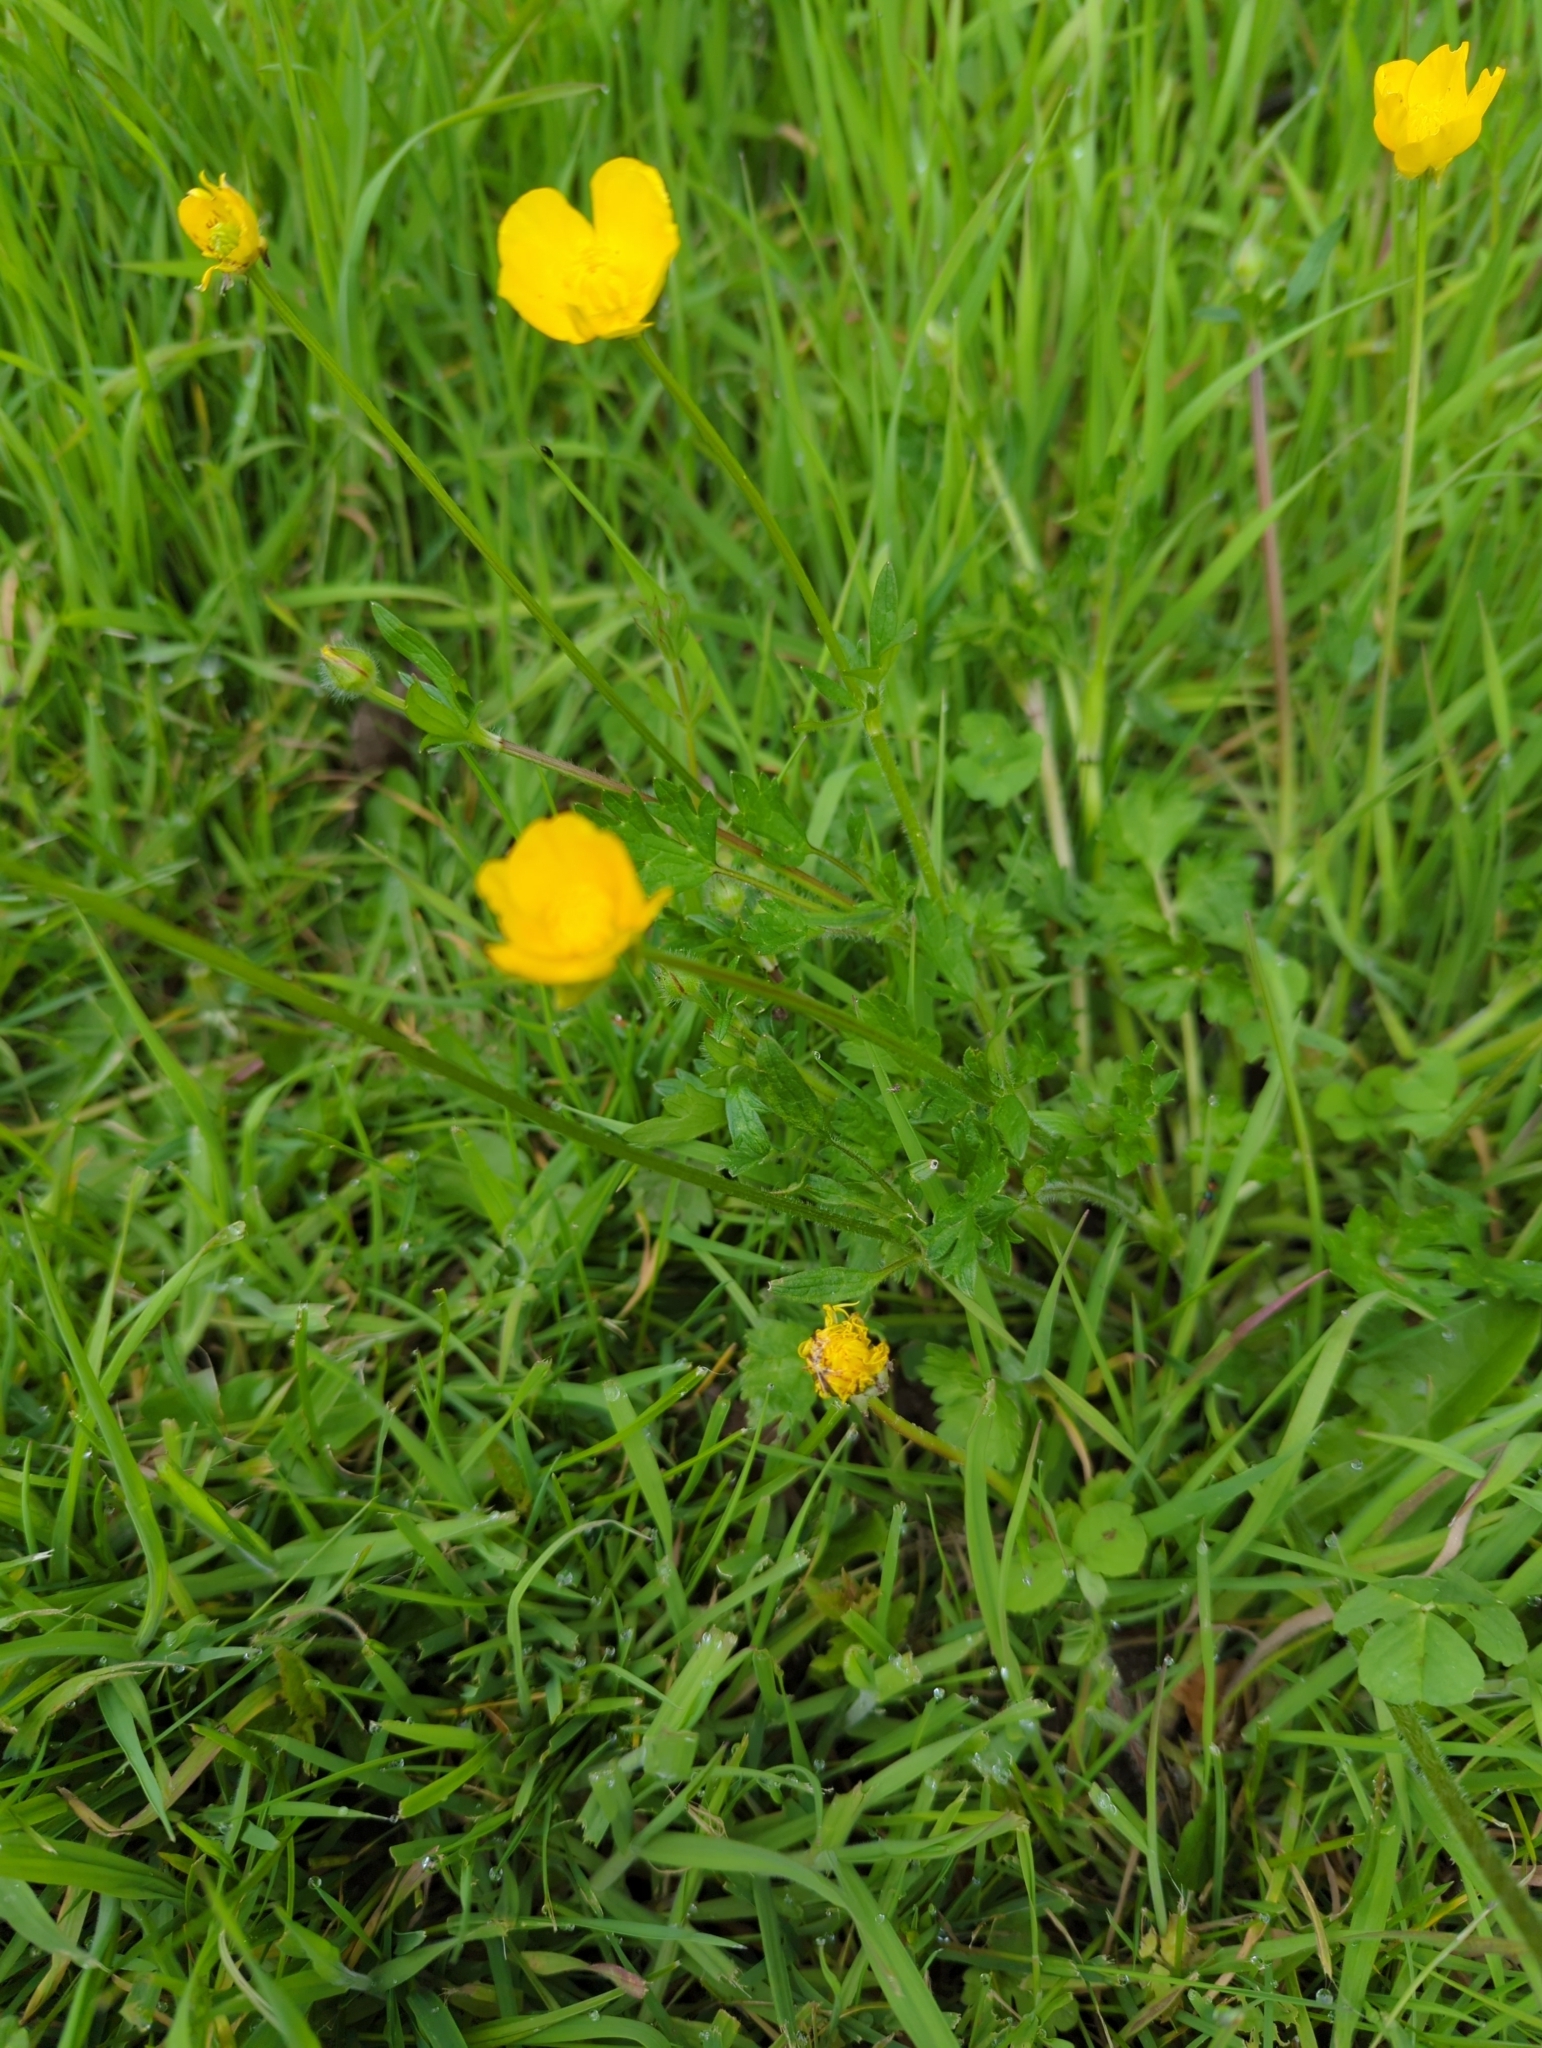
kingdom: Plantae
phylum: Tracheophyta
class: Magnoliopsida
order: Ranunculales
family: Ranunculaceae
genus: Ranunculus
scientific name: Ranunculus bulbosus
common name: Bulbous buttercup
